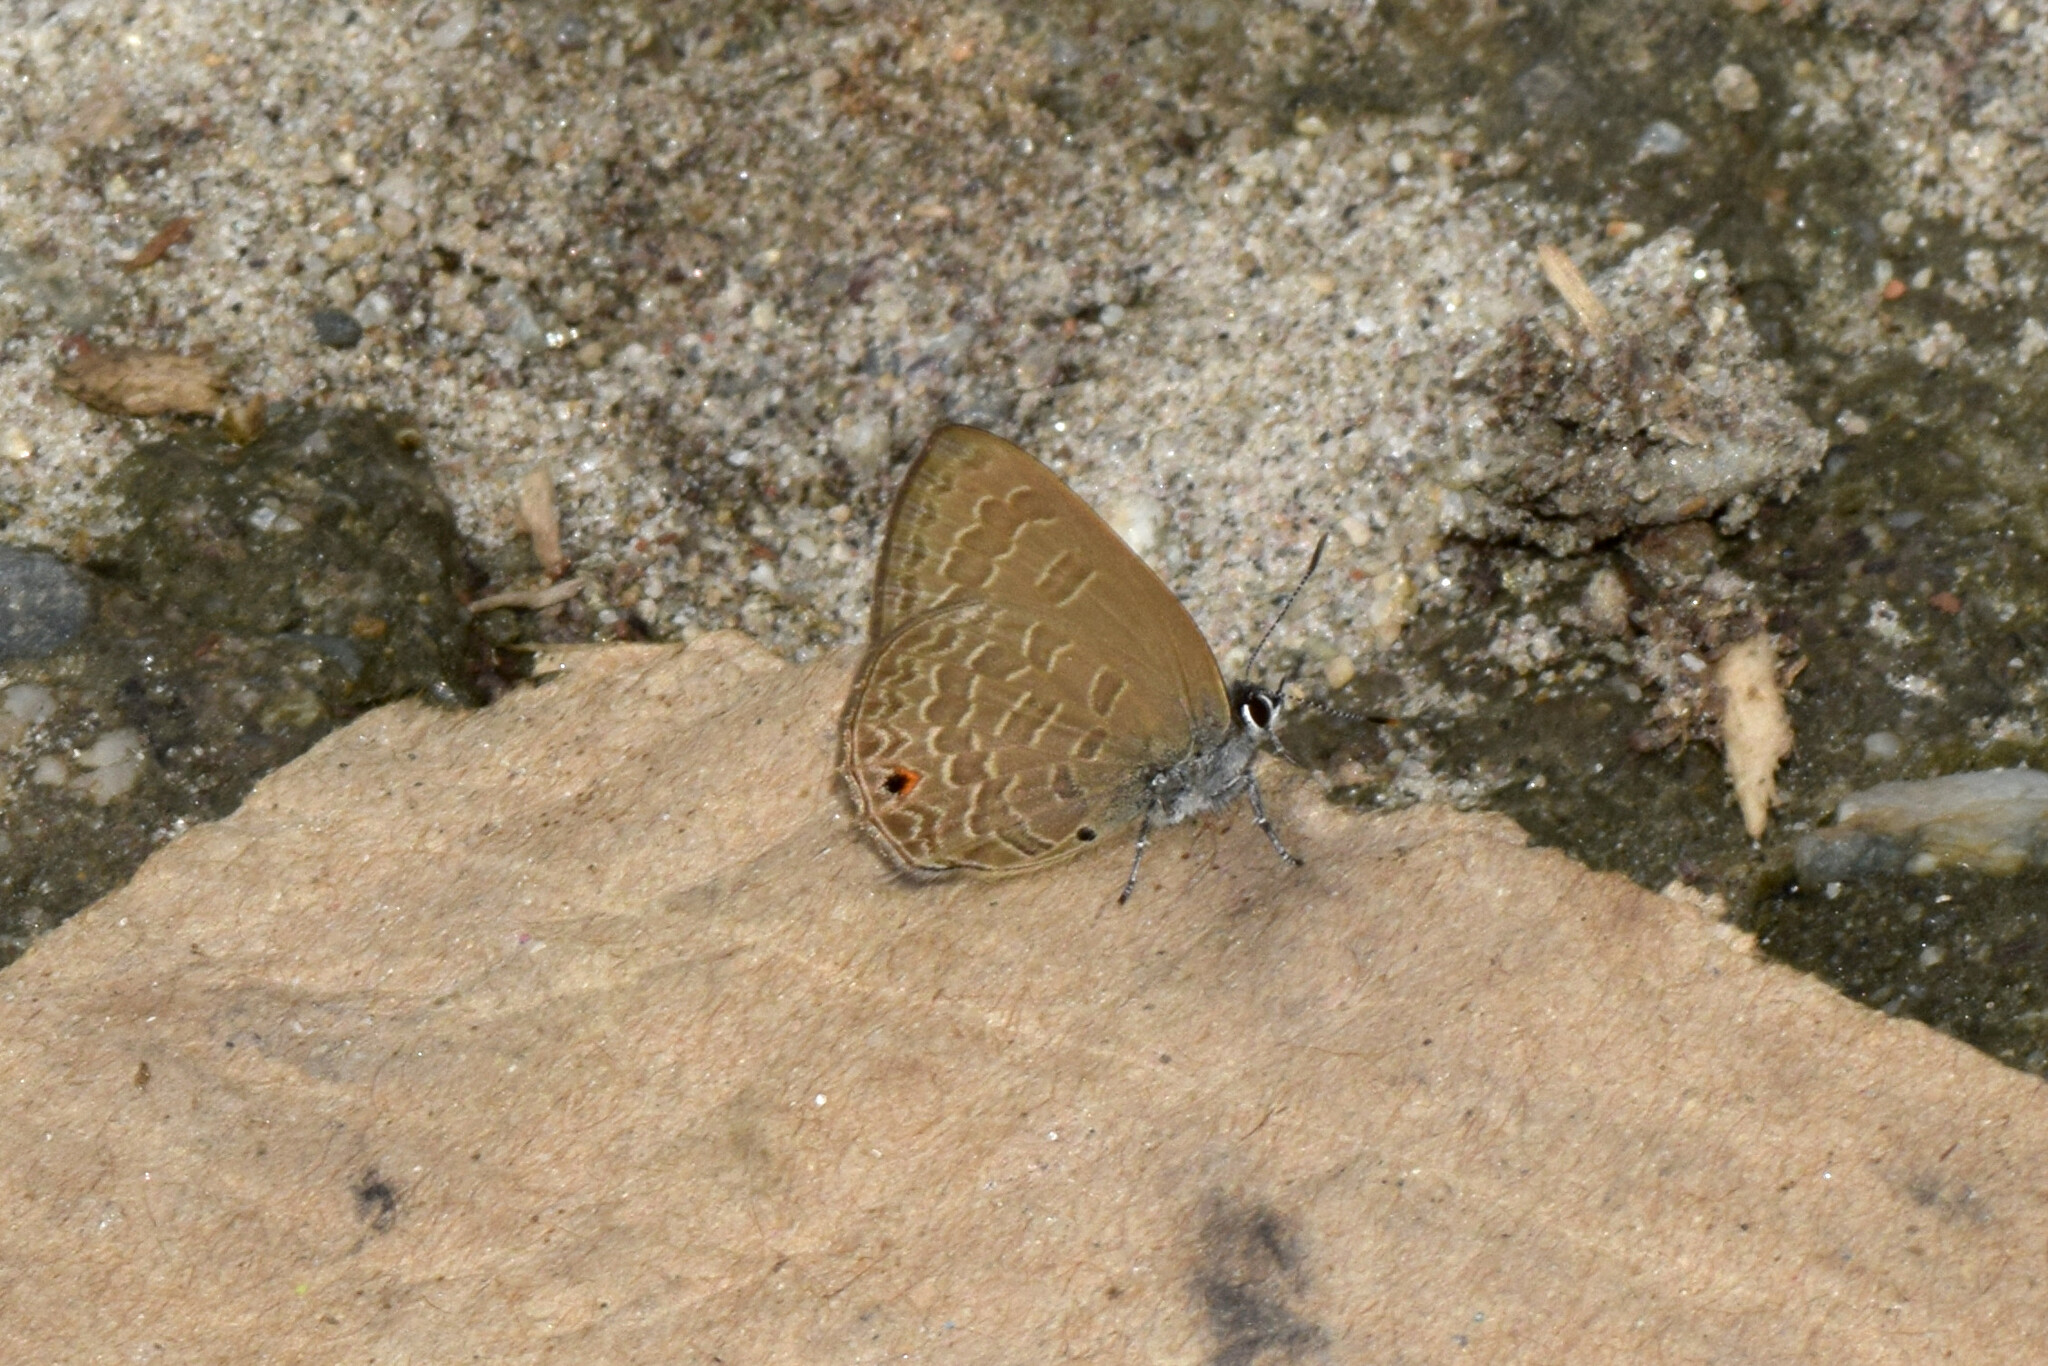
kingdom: Animalia
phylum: Arthropoda
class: Insecta
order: Lepidoptera
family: Lycaenidae
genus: Anthene
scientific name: Anthene emolus
